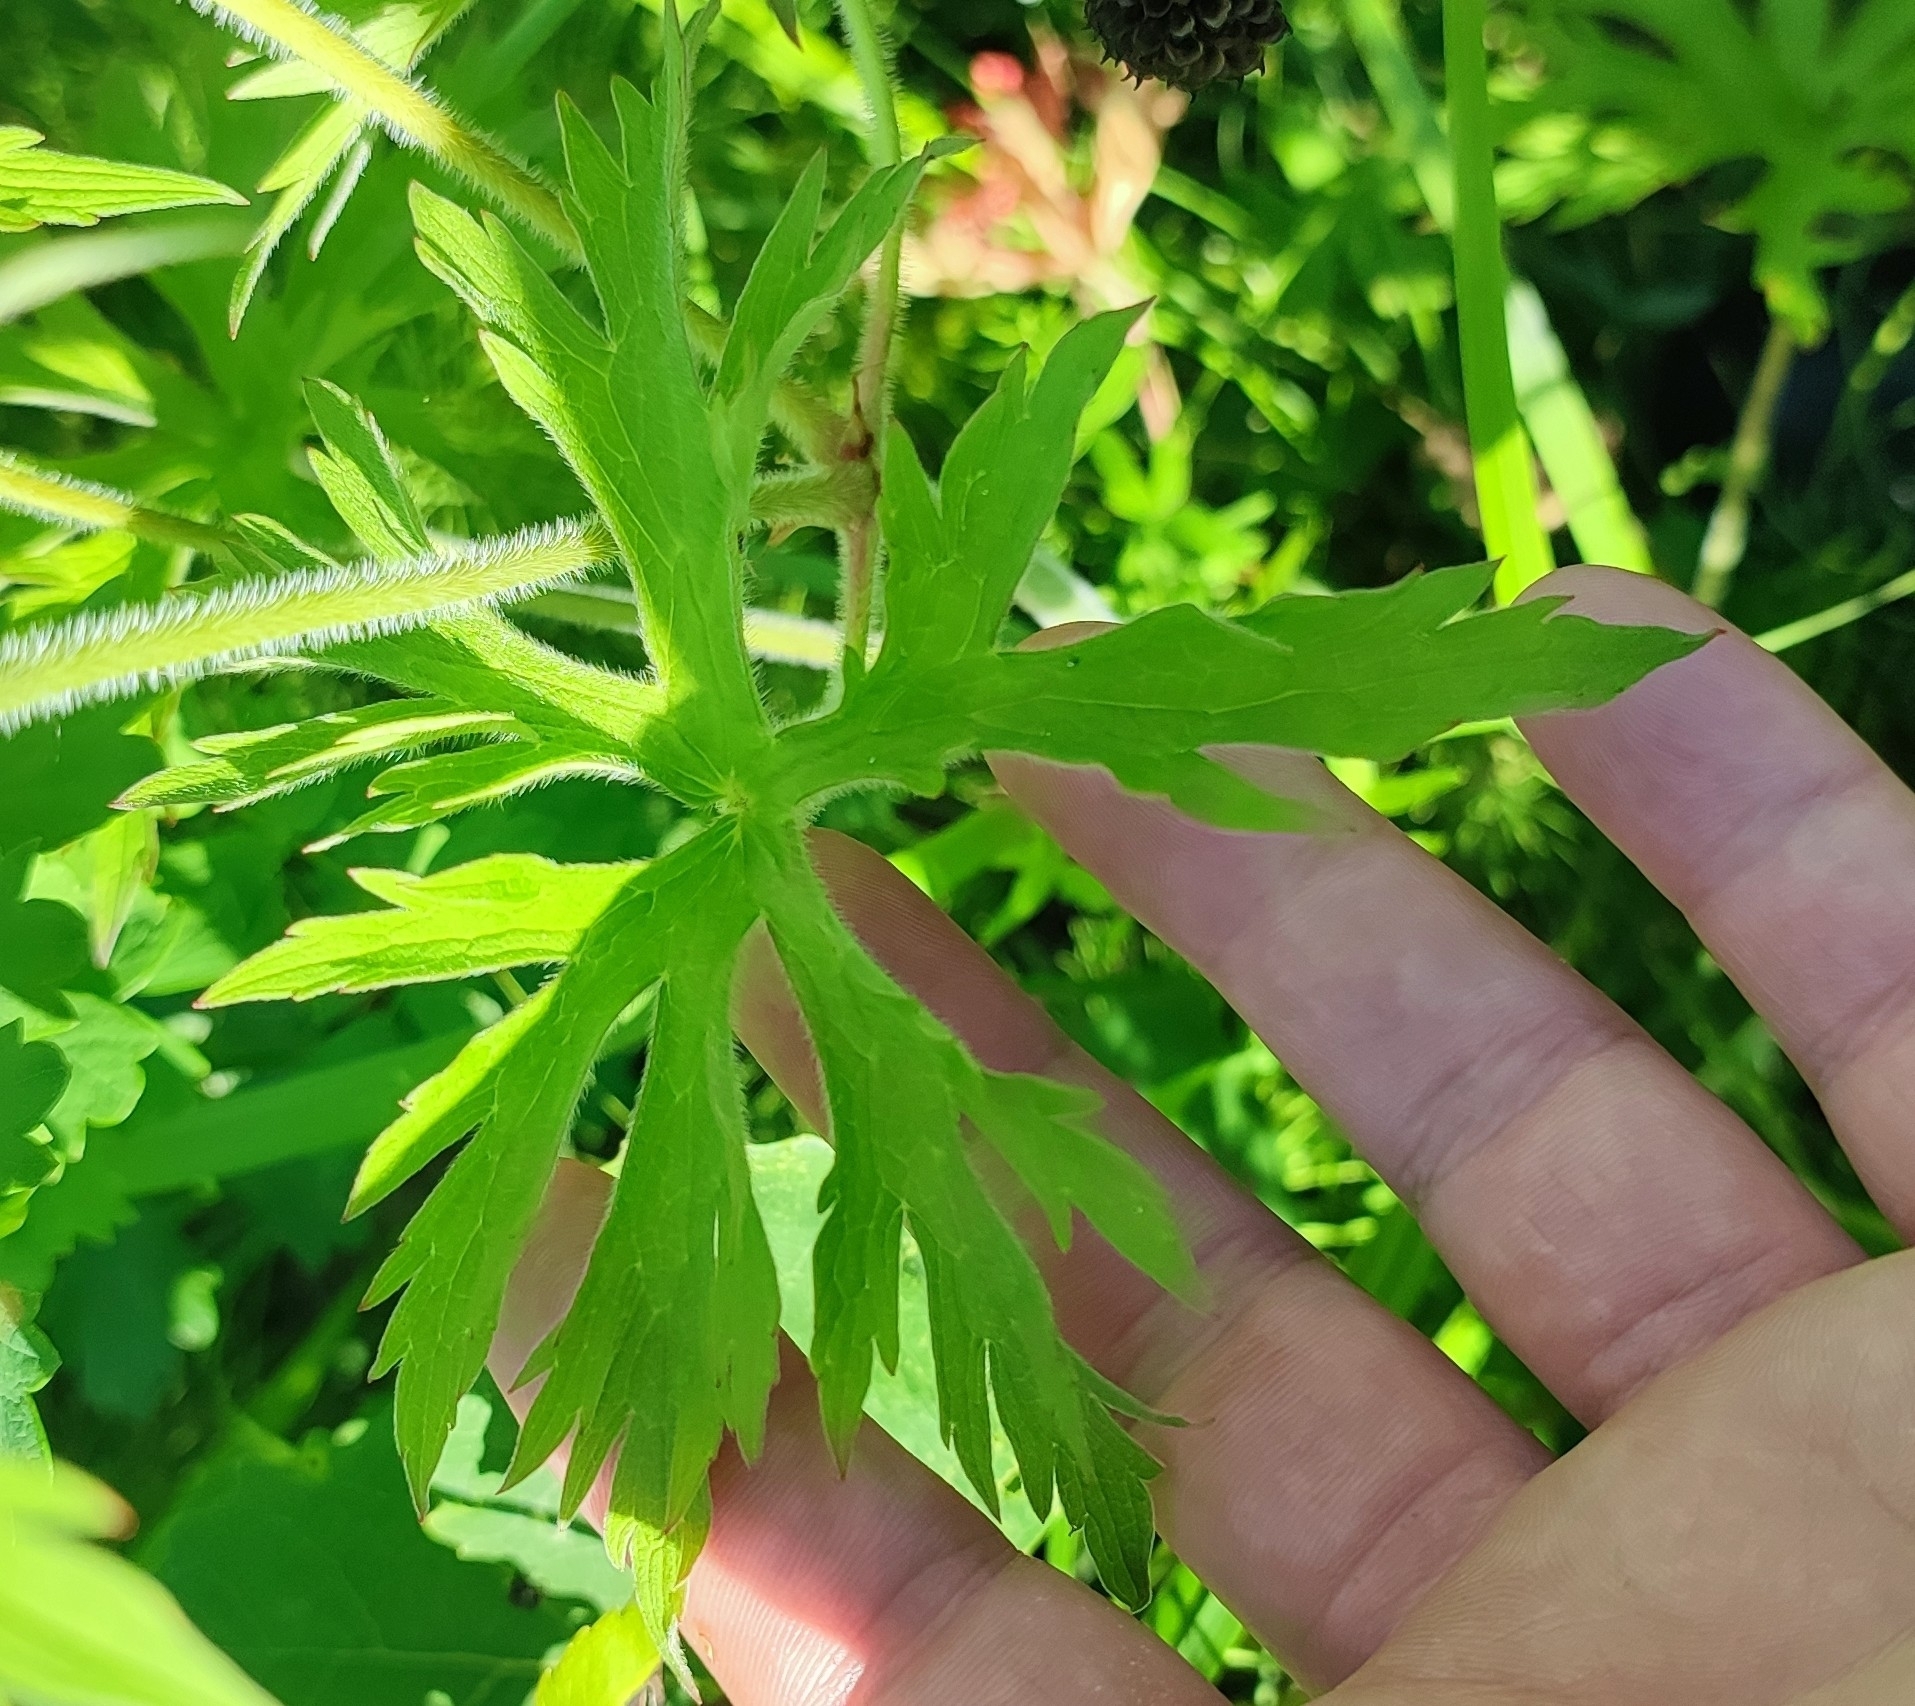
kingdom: Plantae
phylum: Tracheophyta
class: Magnoliopsida
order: Geraniales
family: Geraniaceae
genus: Geranium
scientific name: Geranium pratense
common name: Meadow crane's-bill
